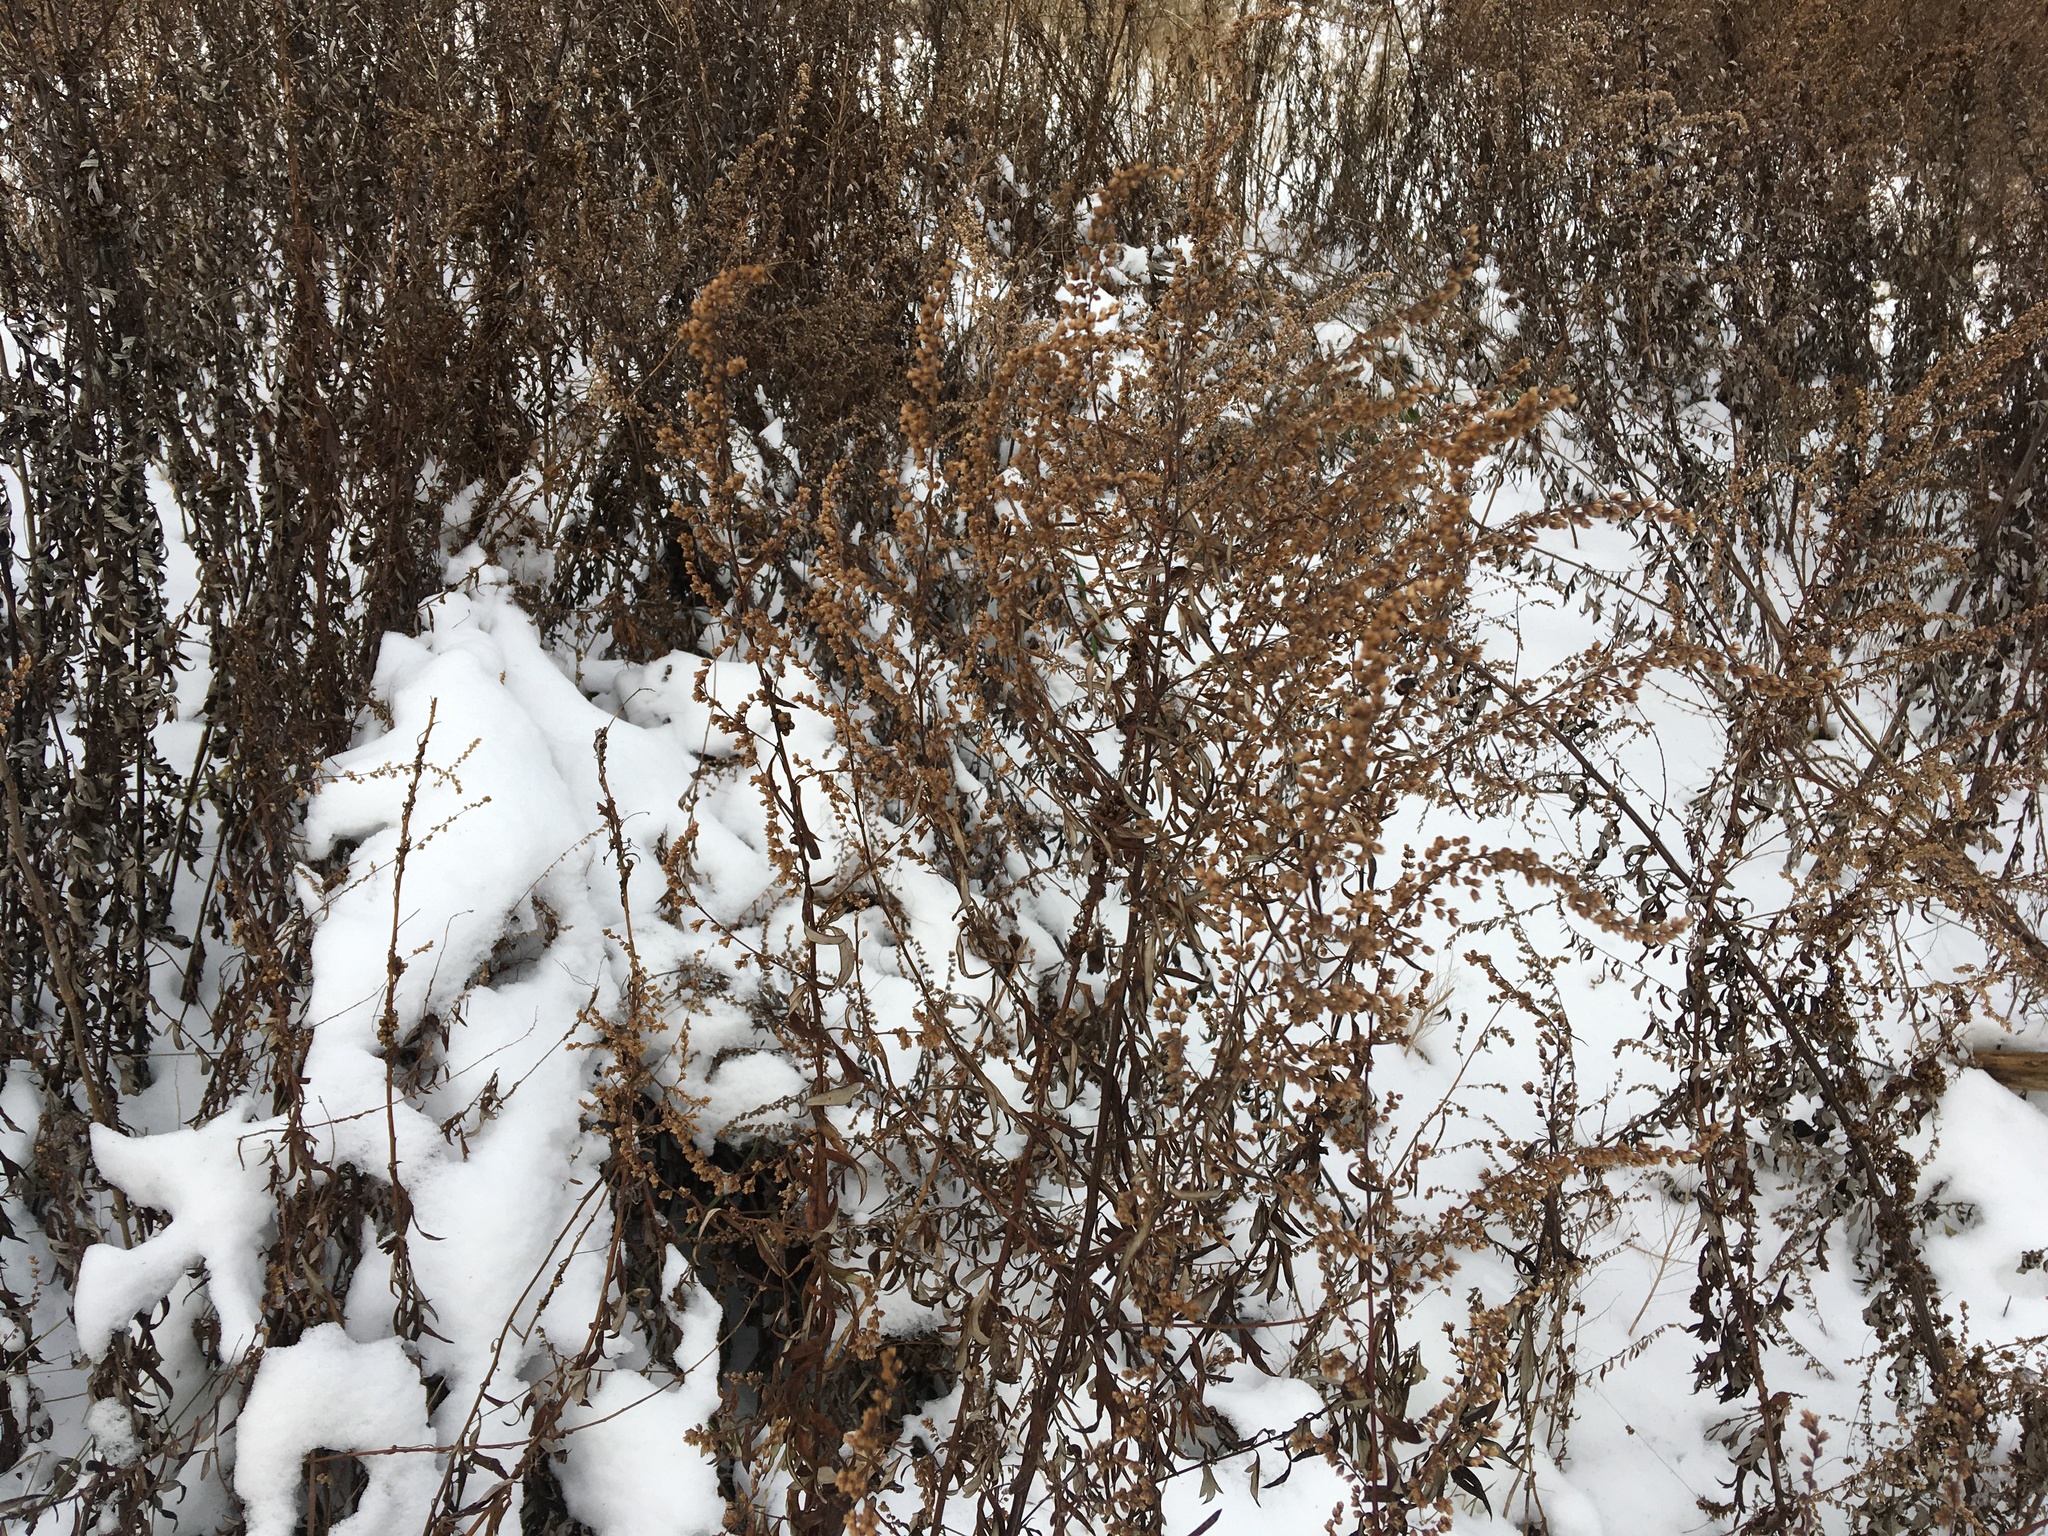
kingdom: Plantae
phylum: Tracheophyta
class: Magnoliopsida
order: Asterales
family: Asteraceae
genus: Artemisia
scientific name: Artemisia vulgaris
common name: Mugwort
